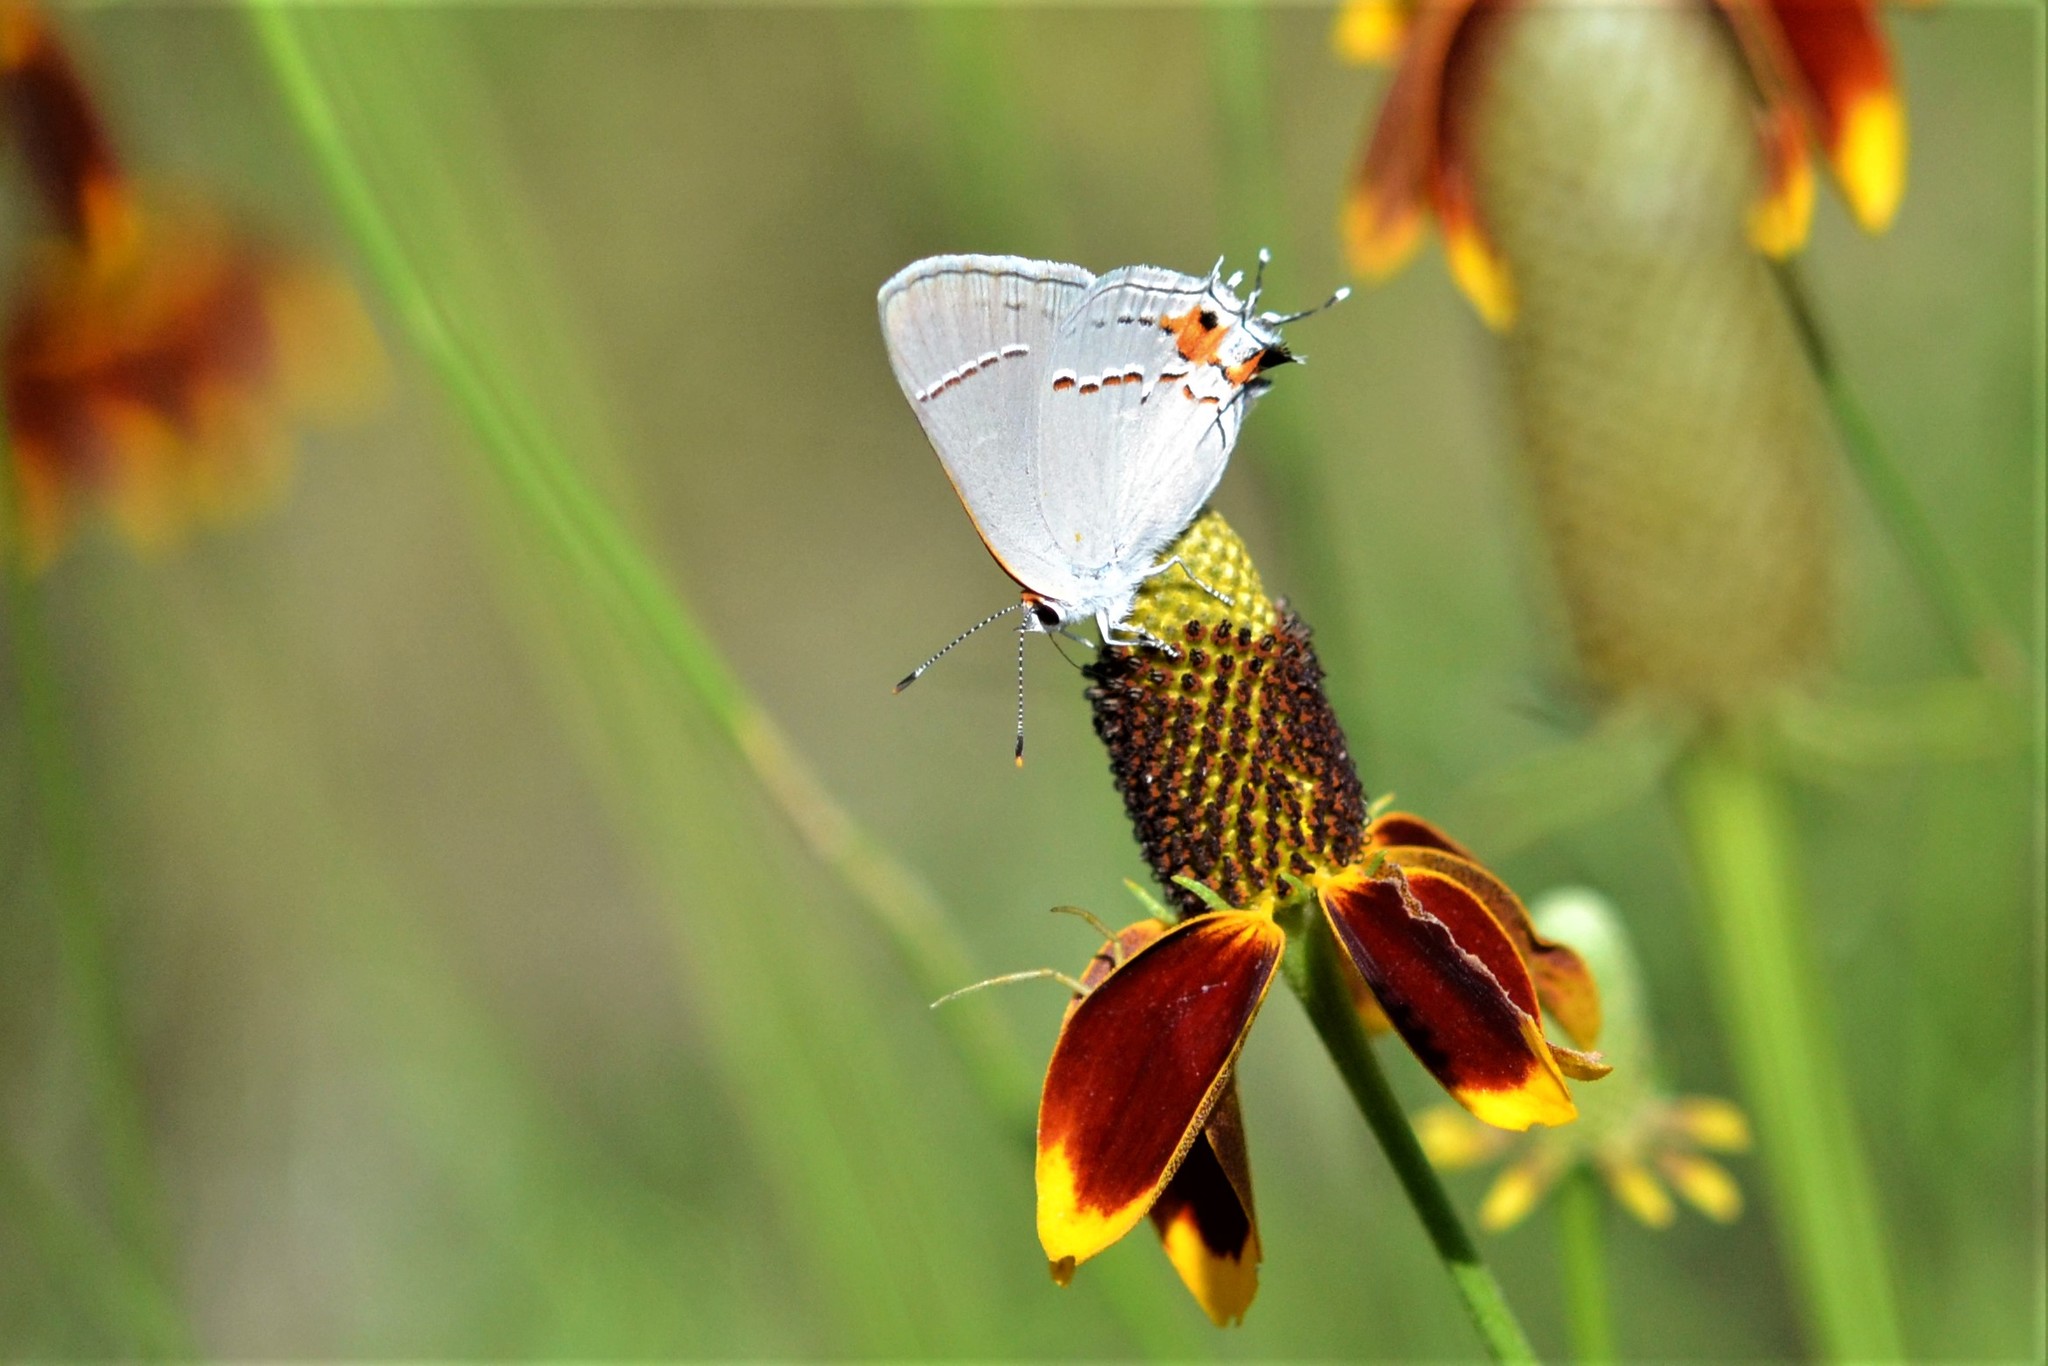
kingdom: Animalia
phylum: Arthropoda
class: Insecta
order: Lepidoptera
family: Lycaenidae
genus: Strymon
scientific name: Strymon melinus
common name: Gray hairstreak
